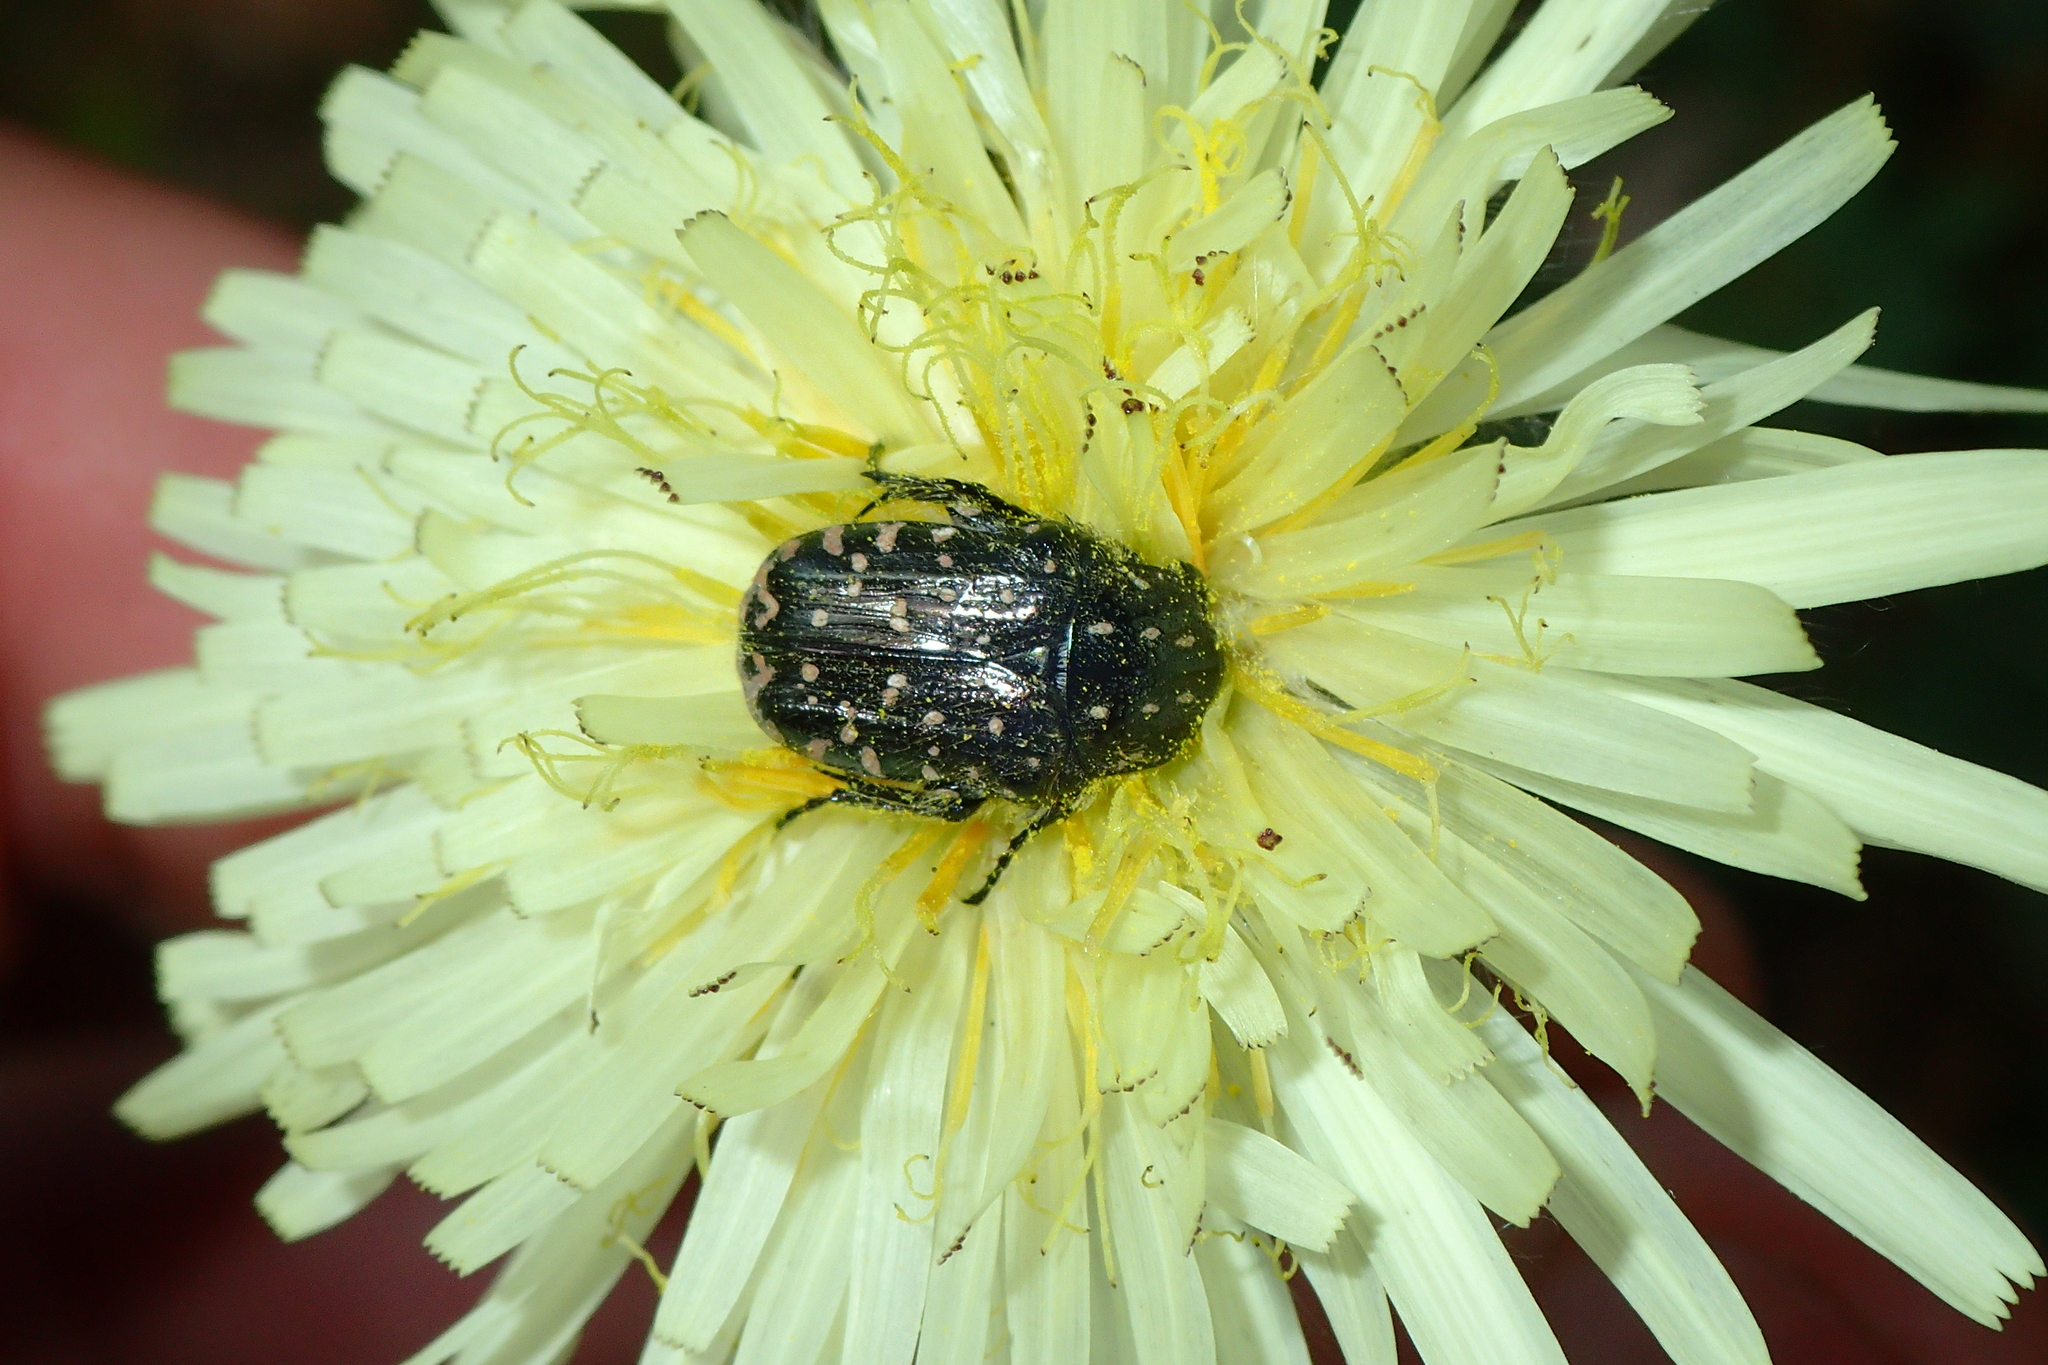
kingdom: Animalia
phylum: Arthropoda
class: Insecta
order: Coleoptera
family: Scarabaeidae
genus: Oxythyrea
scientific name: Oxythyrea funesta
